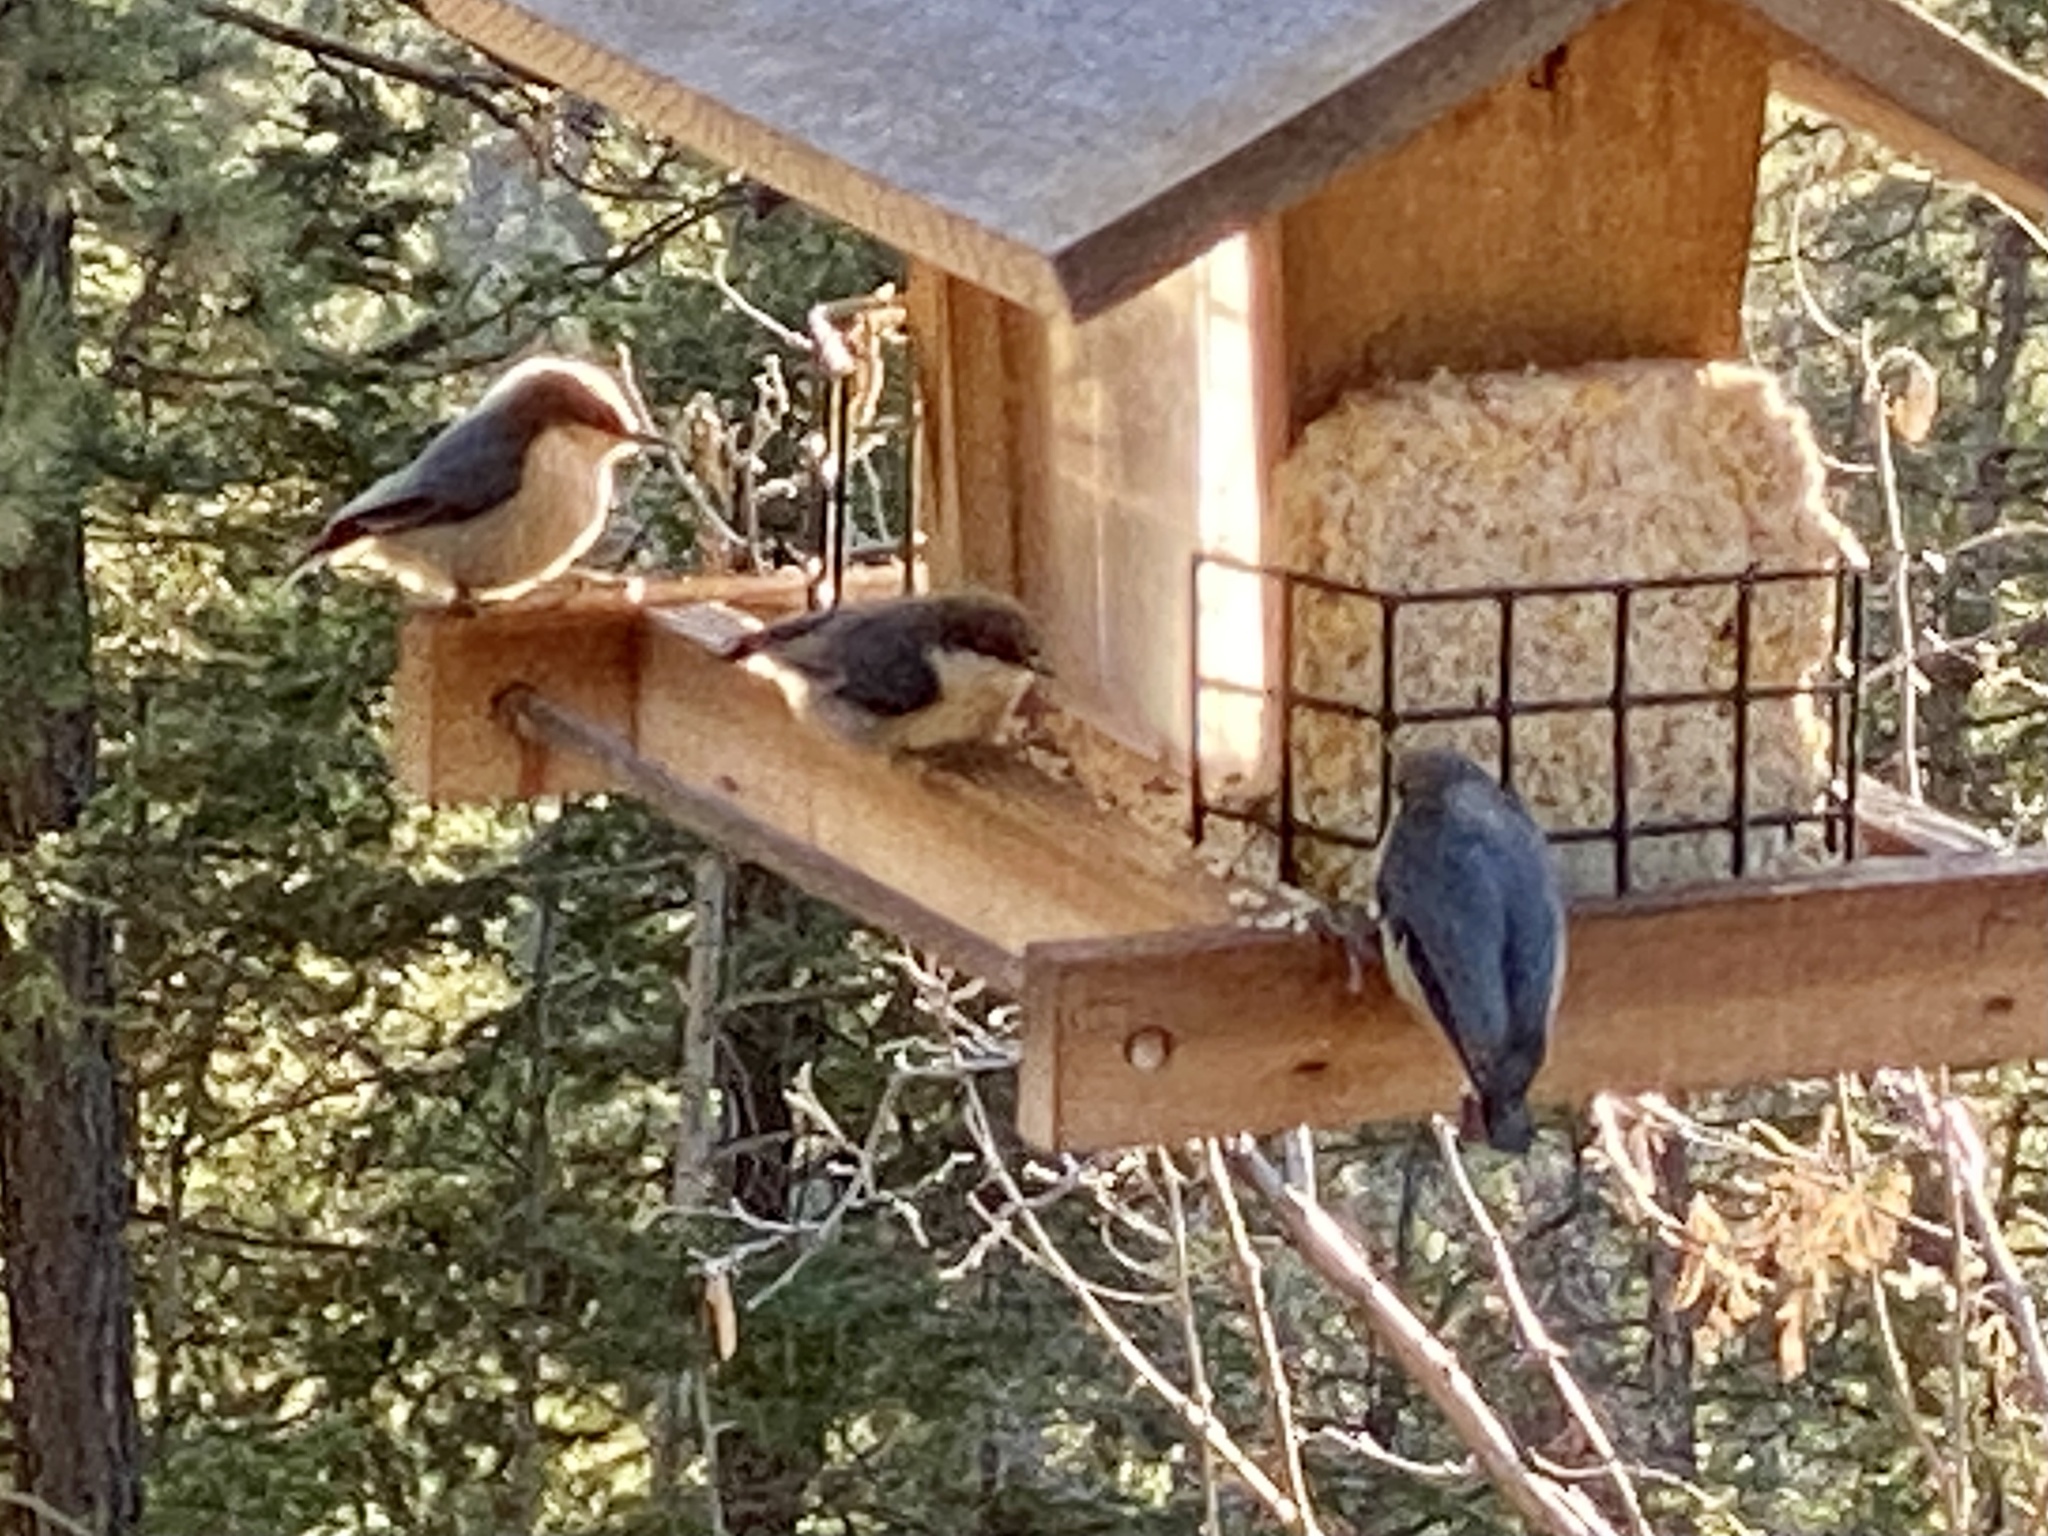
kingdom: Animalia
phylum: Chordata
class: Aves
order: Passeriformes
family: Sittidae
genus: Sitta
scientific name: Sitta pygmaea
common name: Pygmy nuthatch
